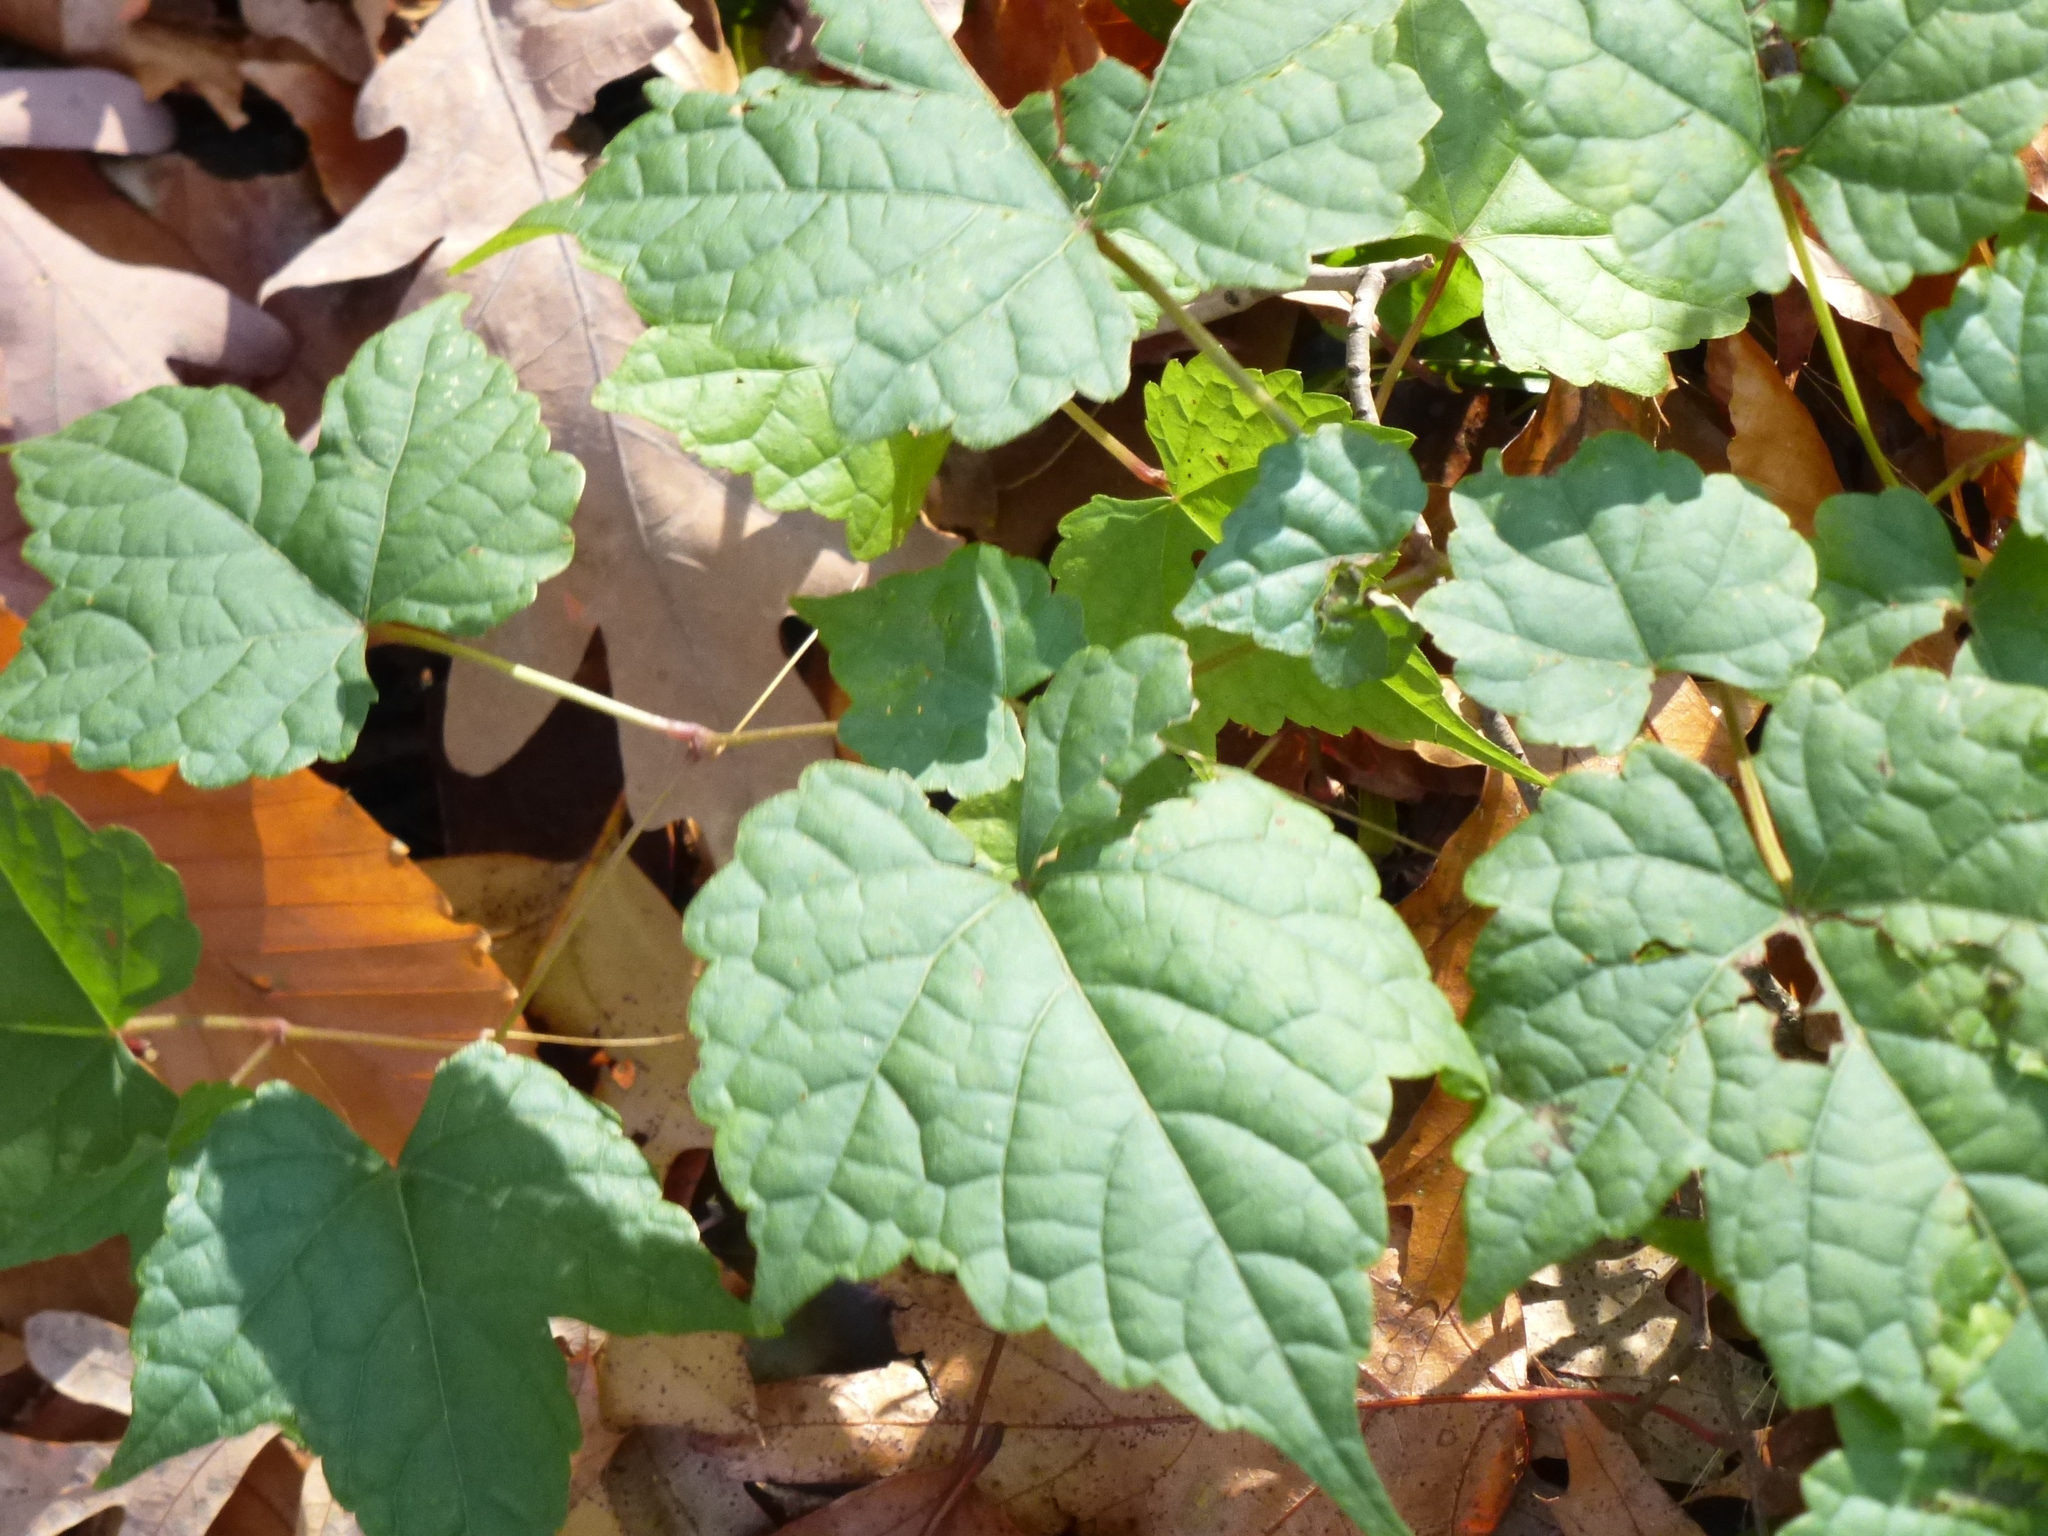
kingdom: Plantae
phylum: Tracheophyta
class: Magnoliopsida
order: Vitales
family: Vitaceae
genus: Ampelopsis
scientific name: Ampelopsis glandulosa
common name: Amur peppervine
